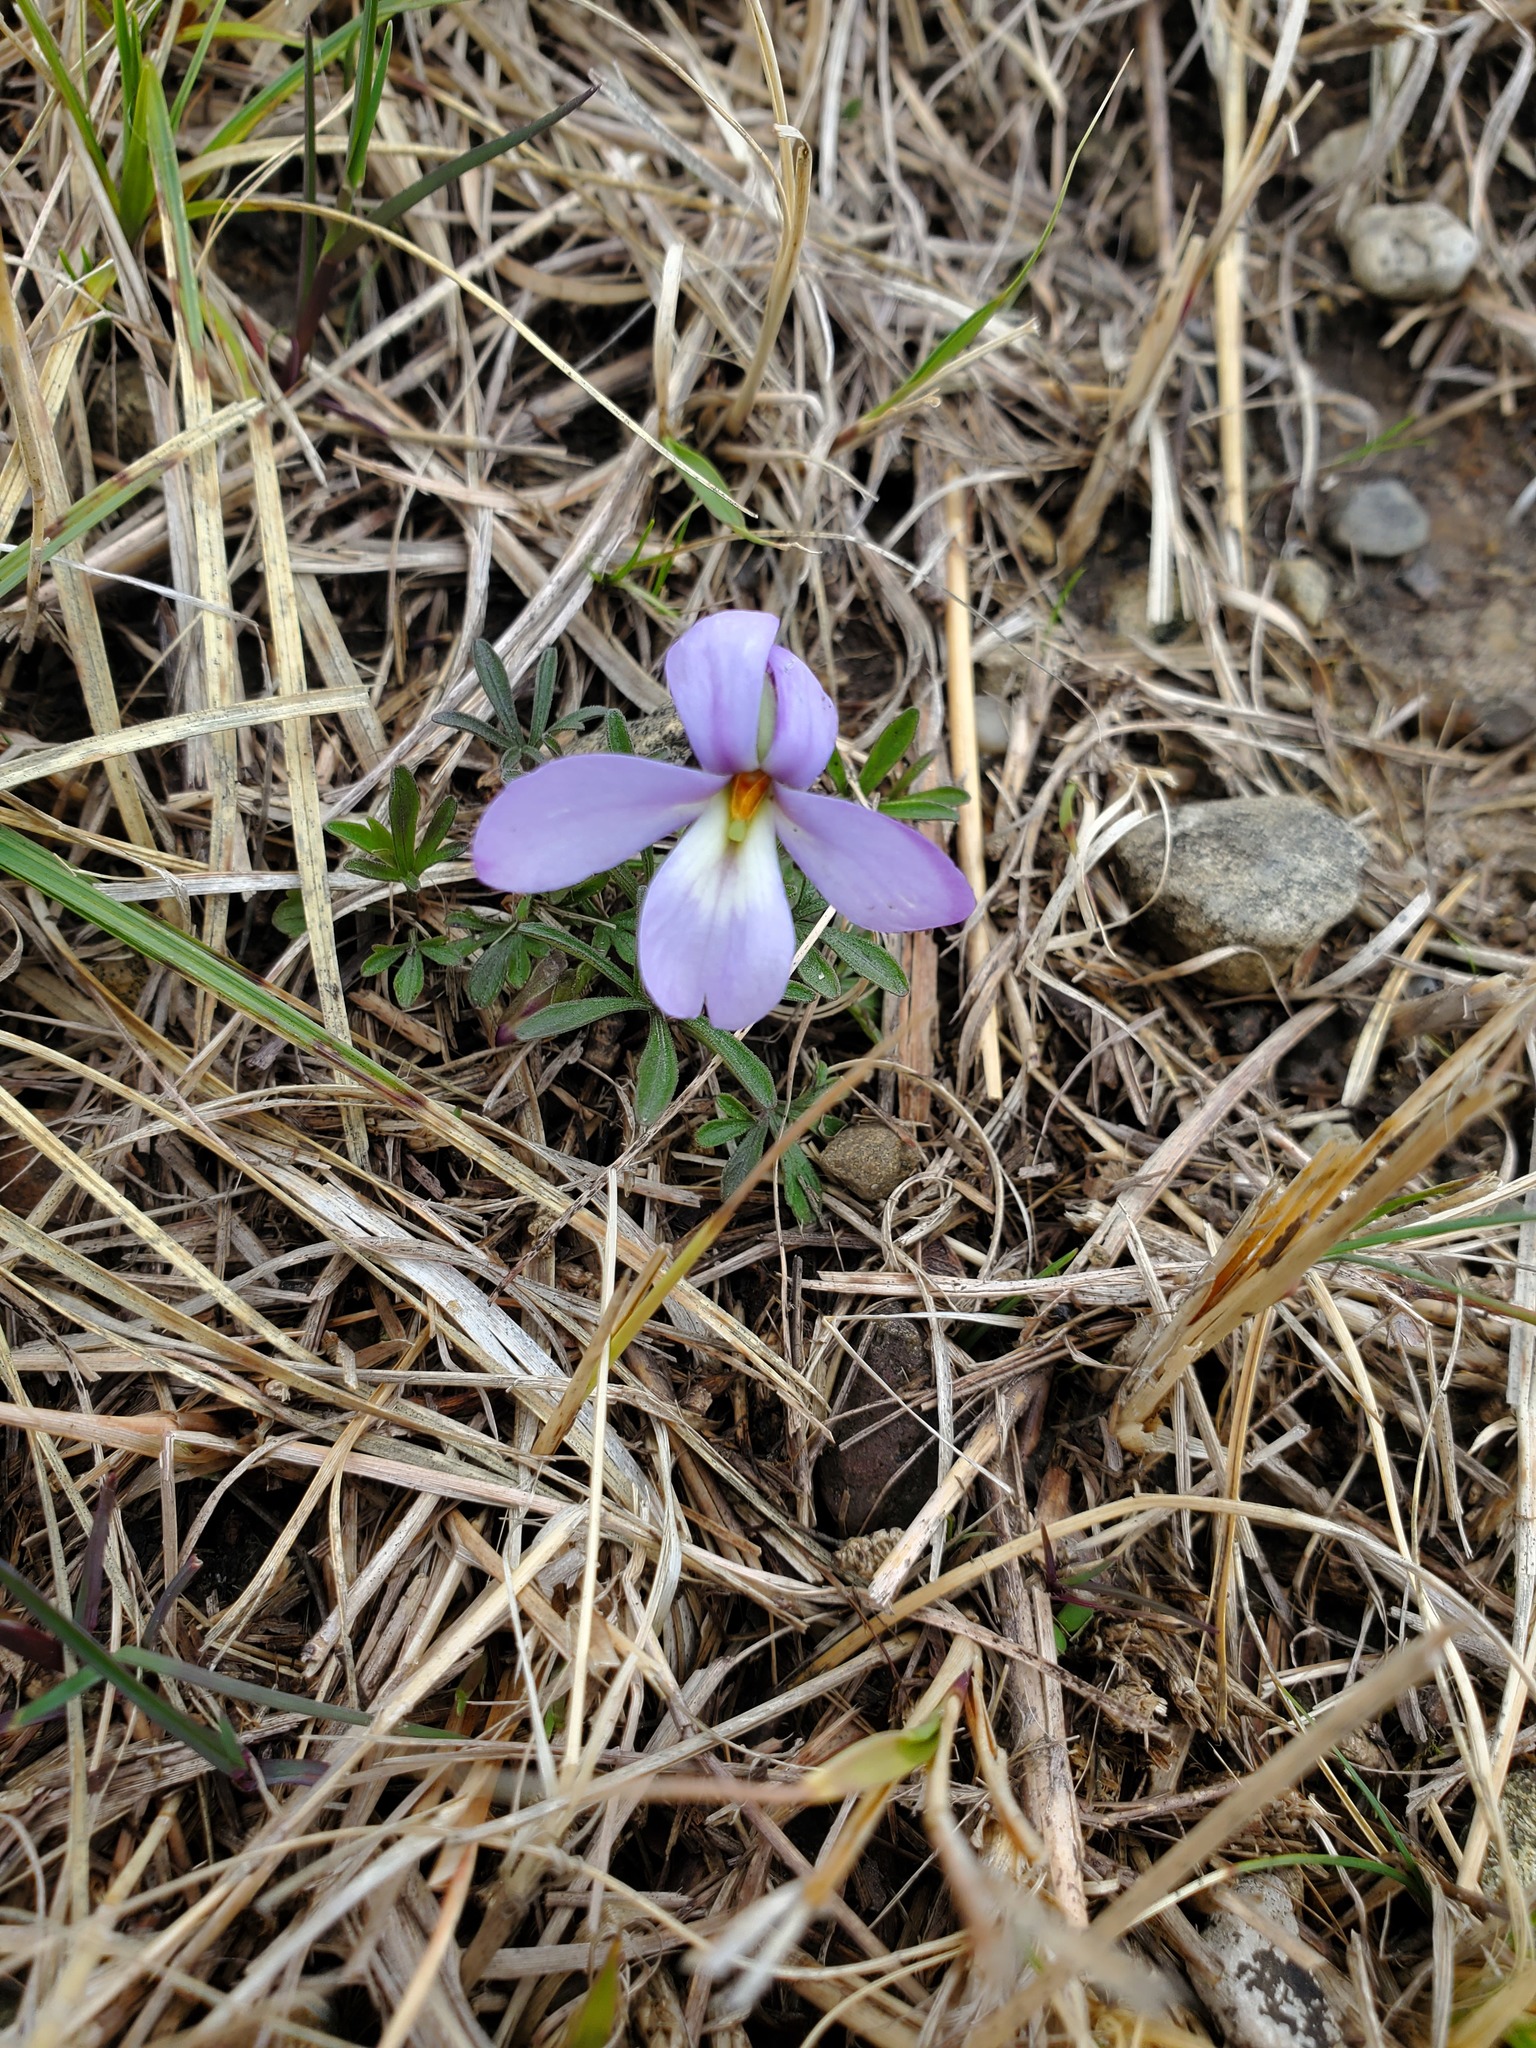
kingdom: Plantae
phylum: Tracheophyta
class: Magnoliopsida
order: Malpighiales
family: Violaceae
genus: Viola
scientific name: Viola pedata
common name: Pansy violet
